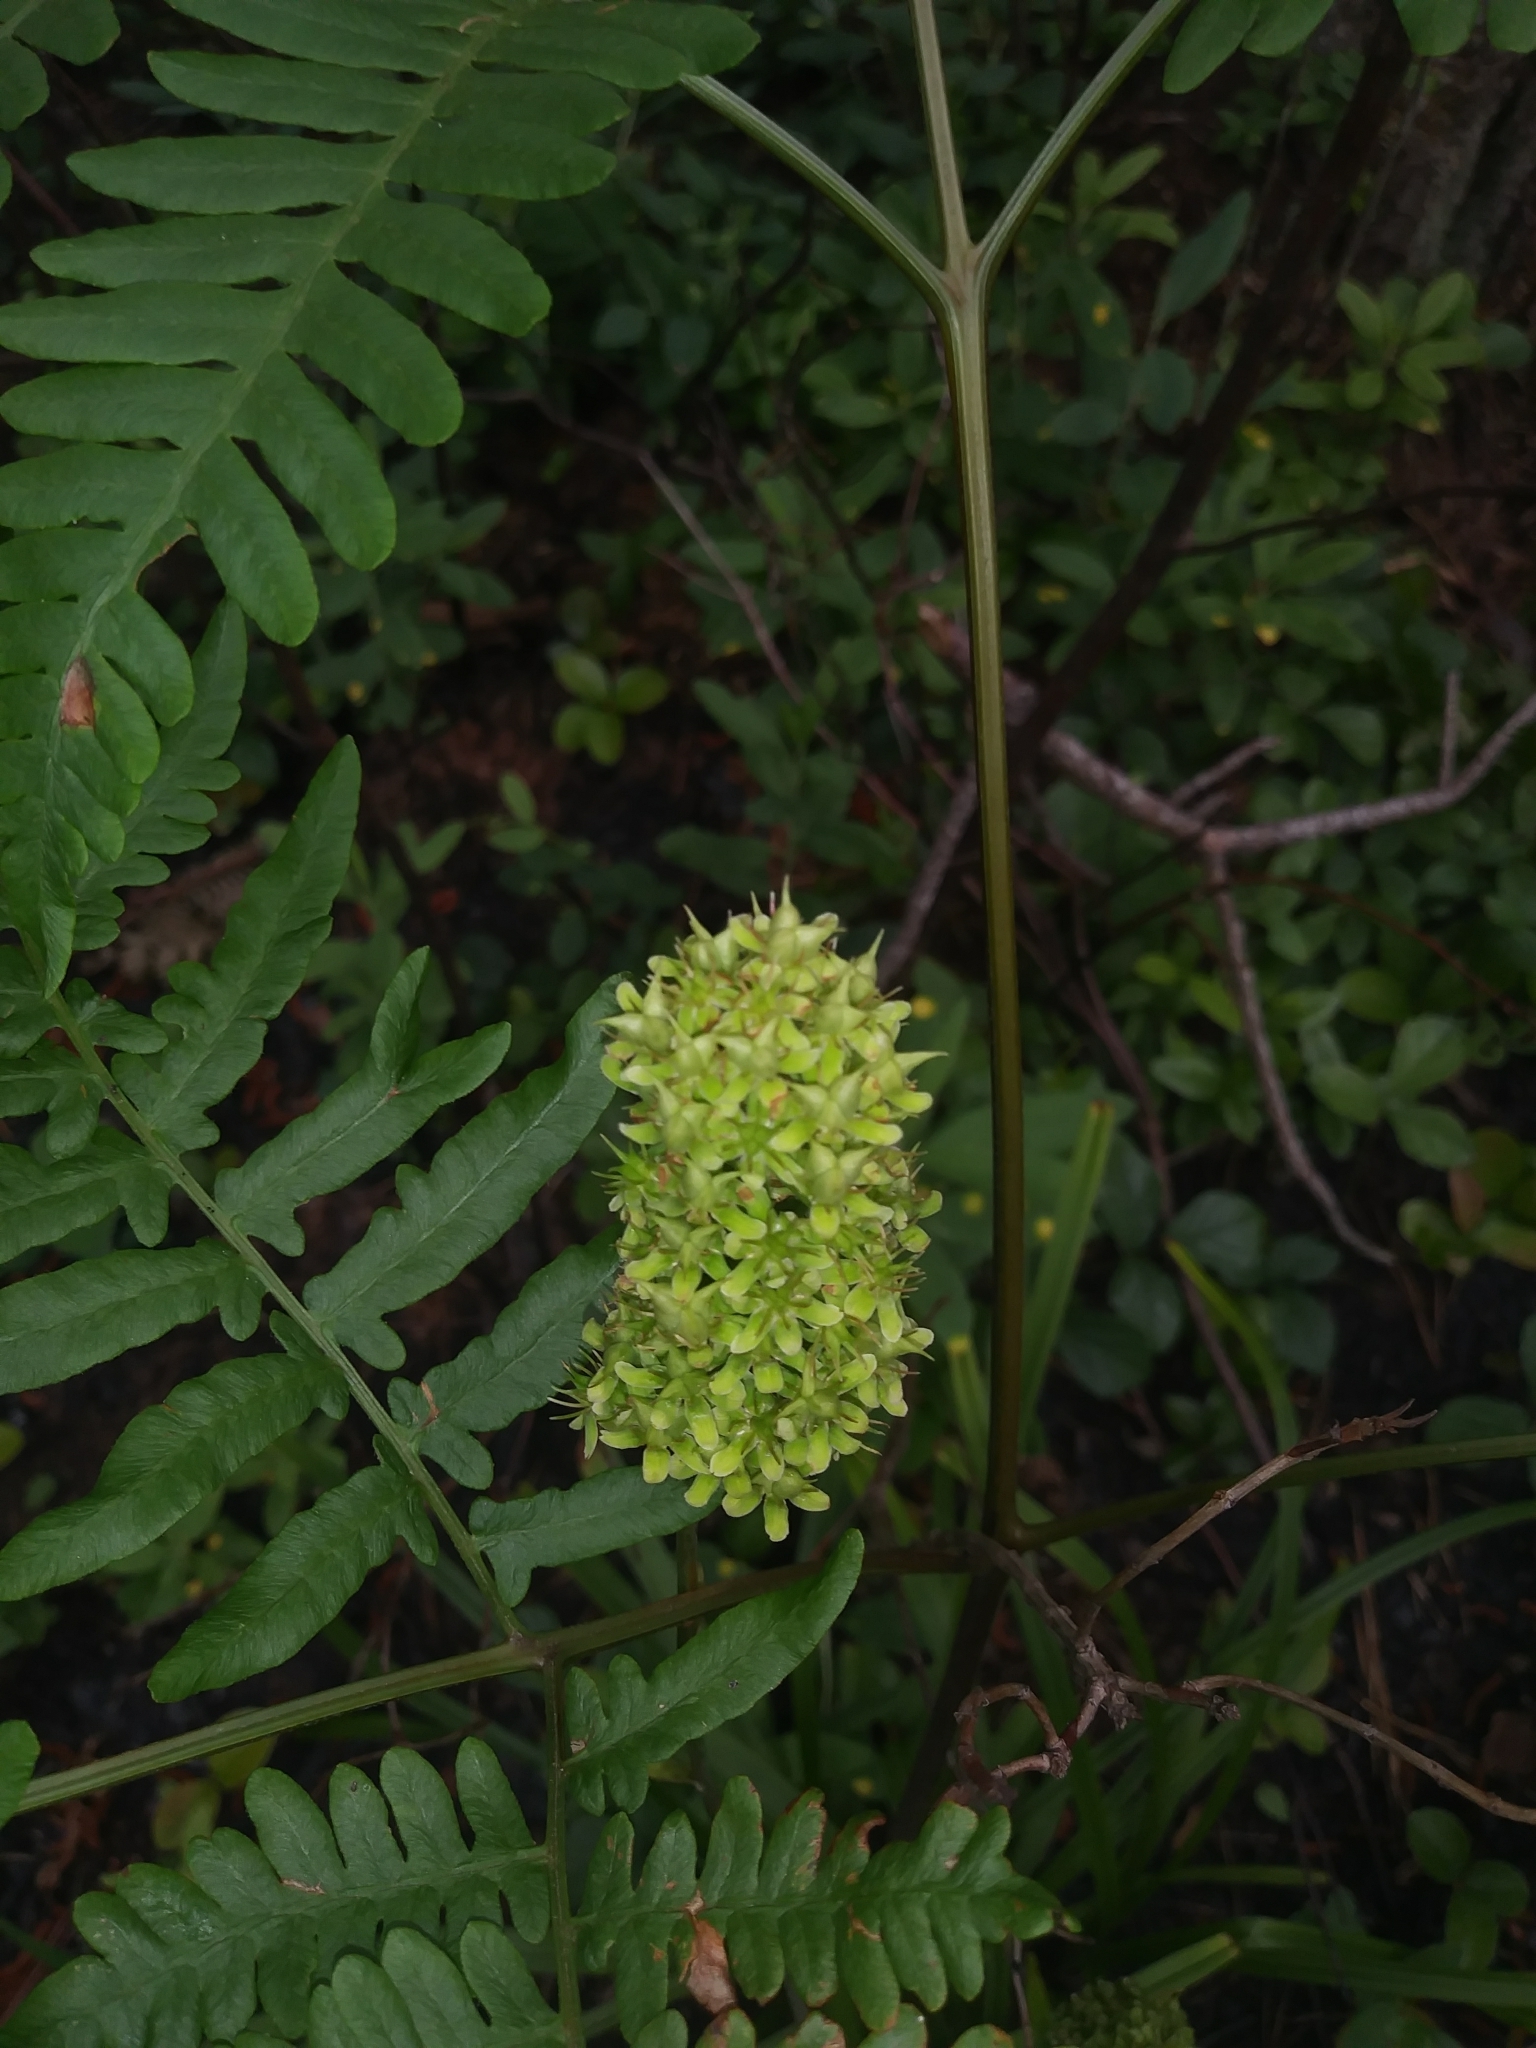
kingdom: Plantae
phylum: Tracheophyta
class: Liliopsida
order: Liliales
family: Melanthiaceae
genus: Amianthium
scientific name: Amianthium muscitoxicum
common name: Fly-poison
